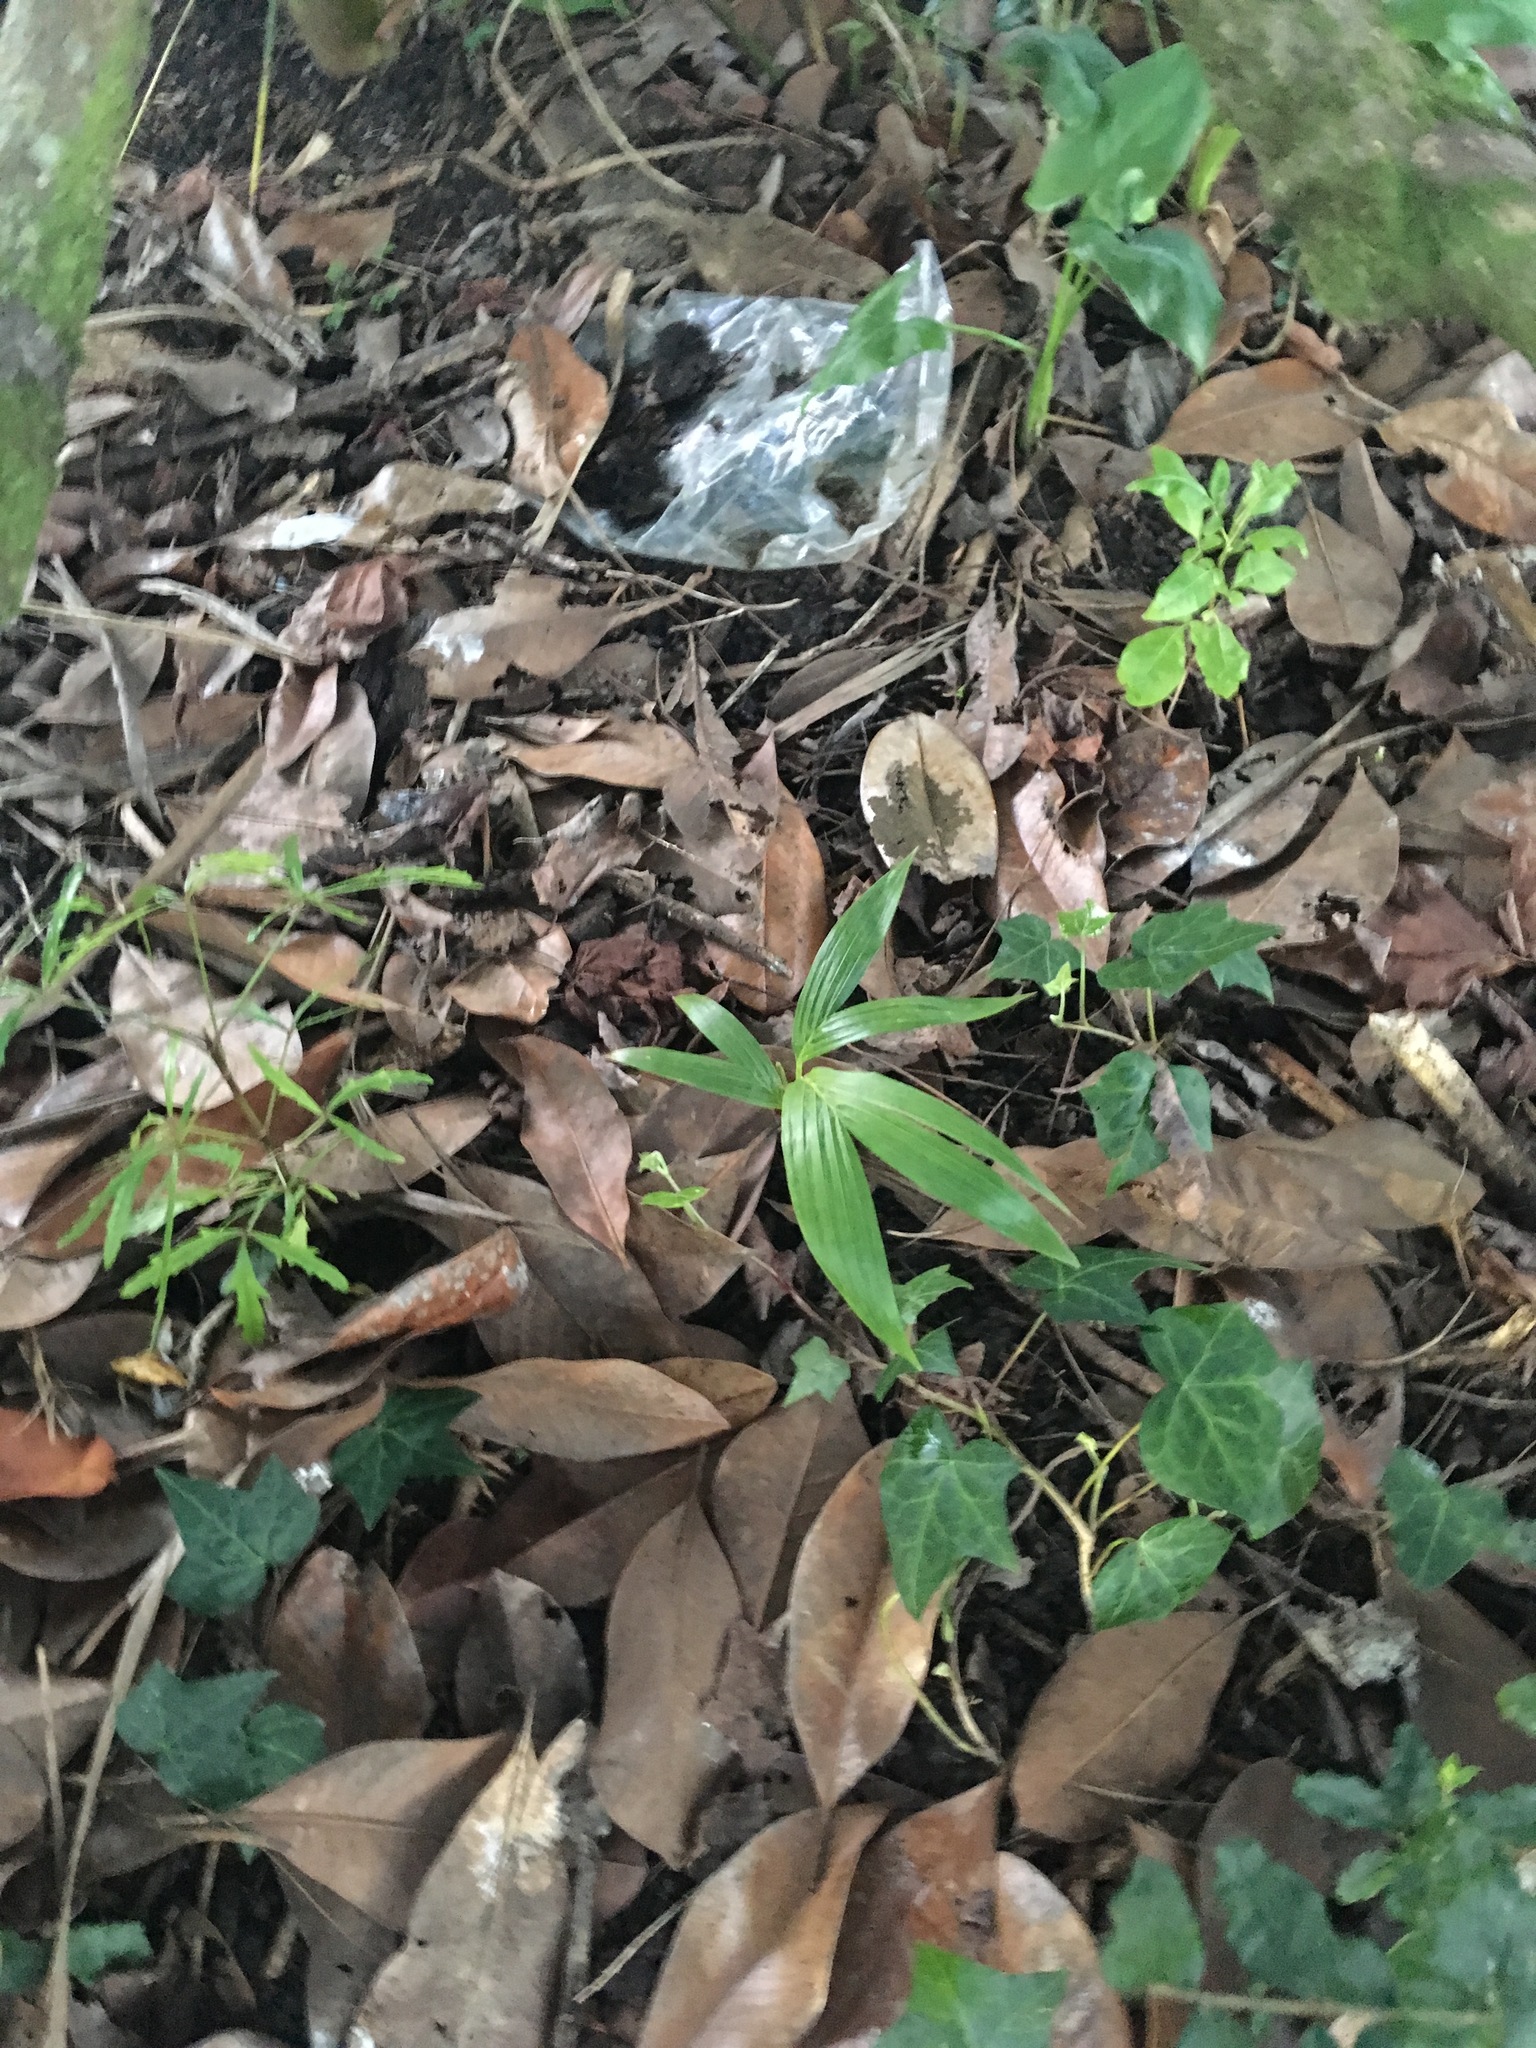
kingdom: Plantae
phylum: Tracheophyta
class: Liliopsida
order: Arecales
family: Arecaceae
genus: Archontophoenix
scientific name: Archontophoenix cunninghamiana
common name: Piccabeen bangalow palm
